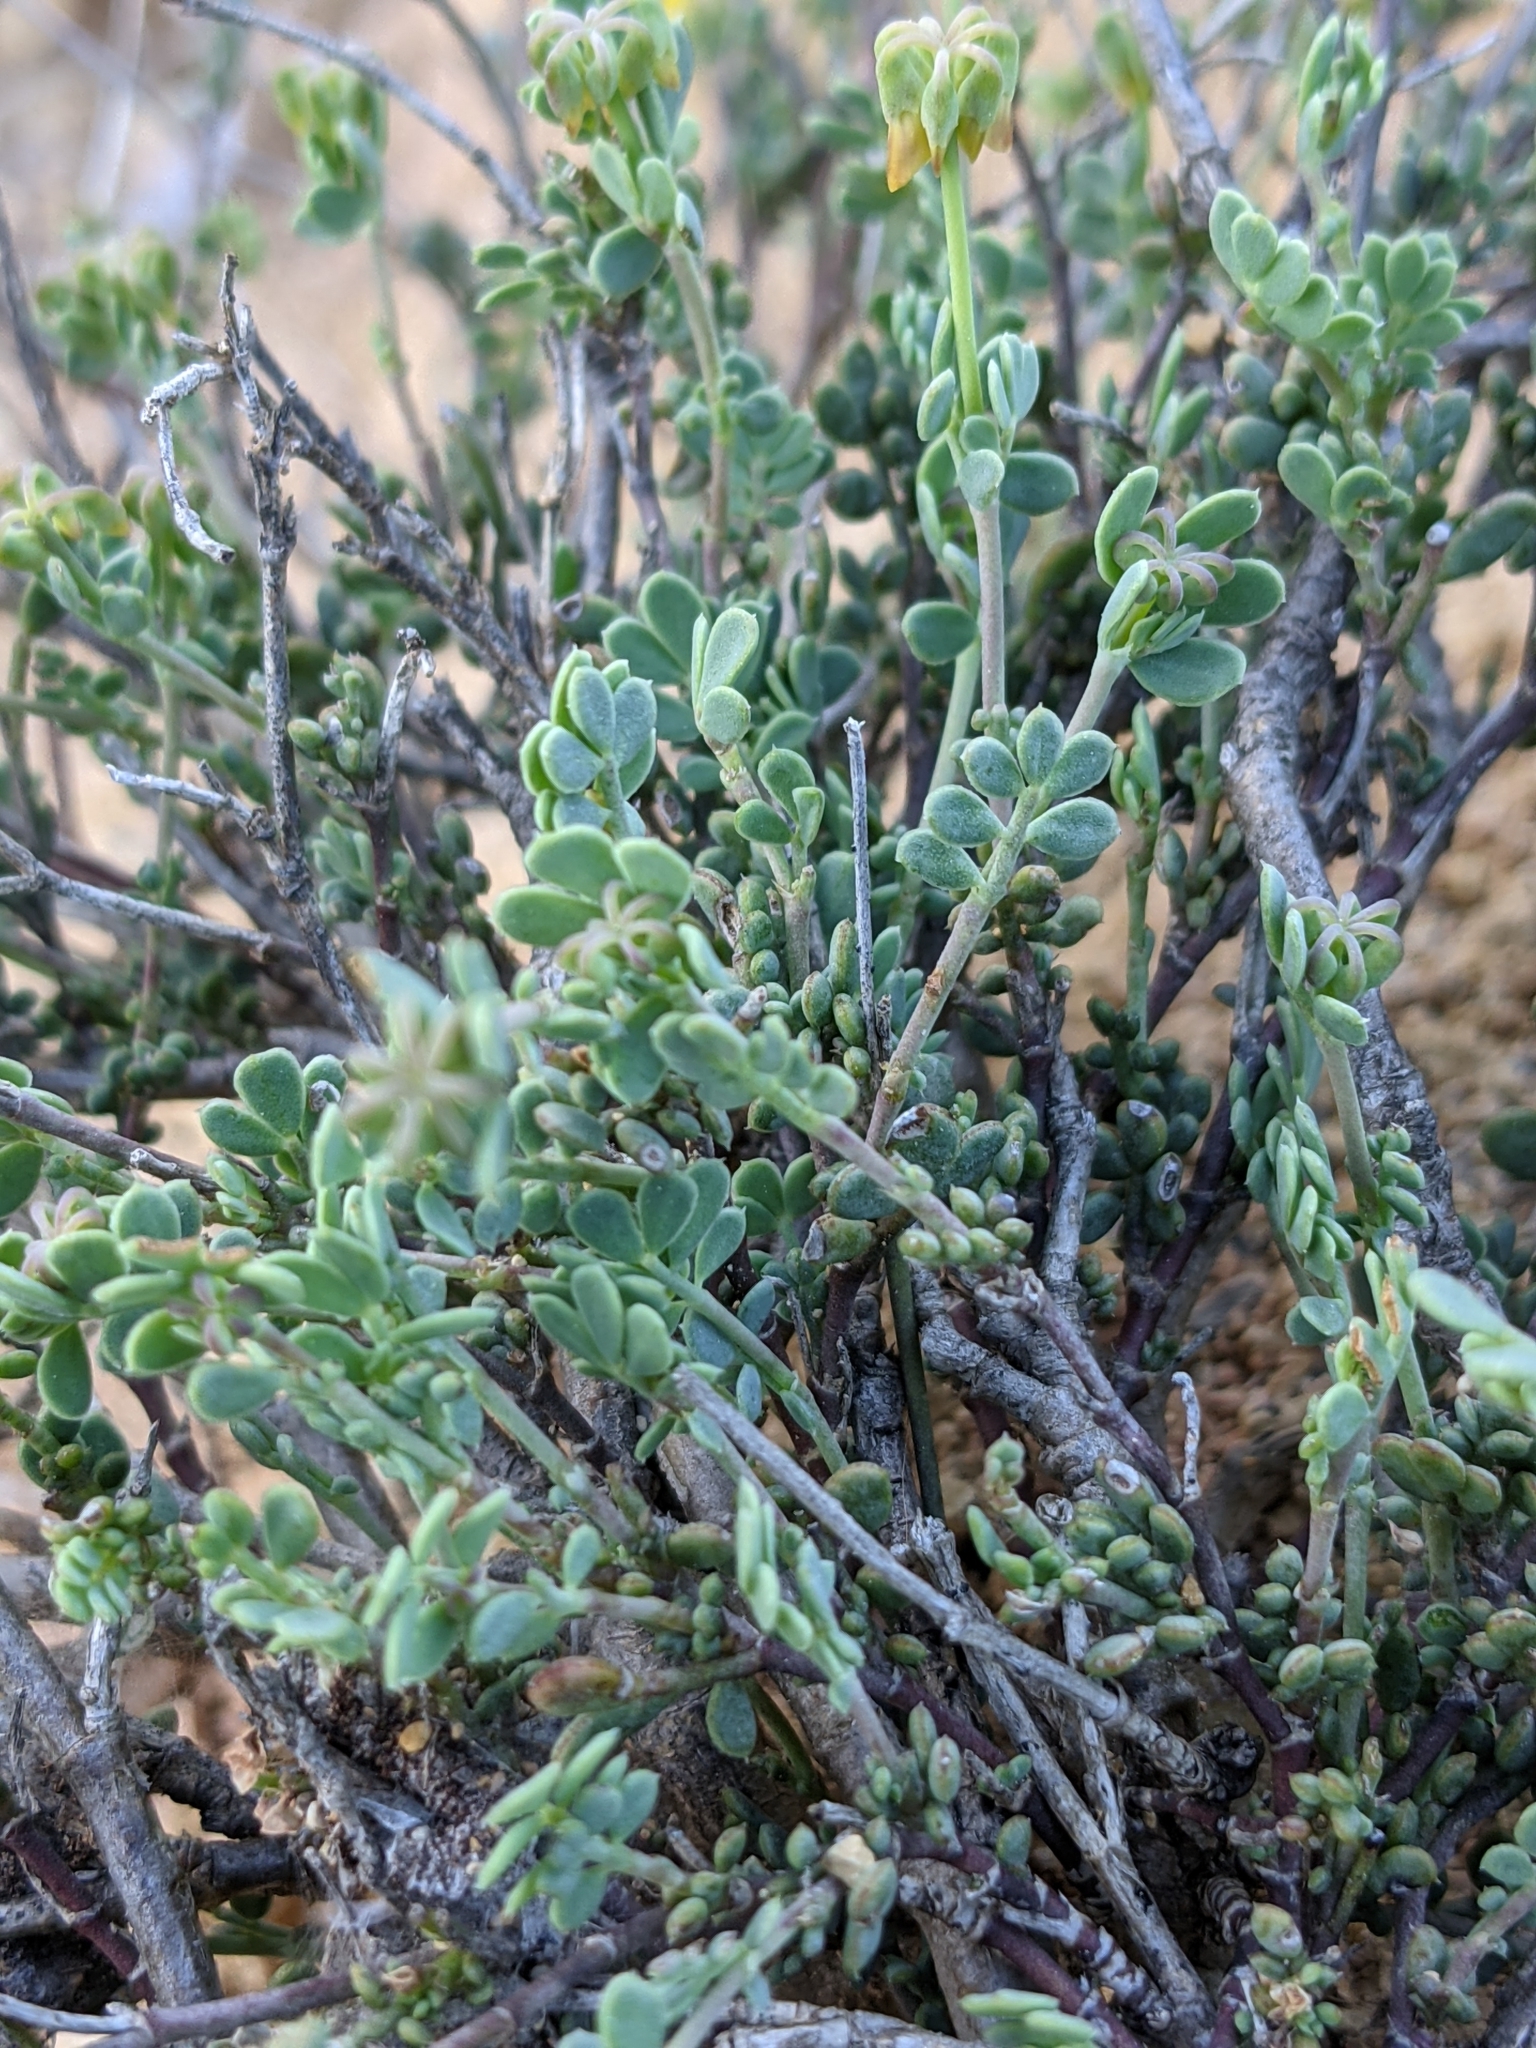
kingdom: Plantae
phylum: Tracheophyta
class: Magnoliopsida
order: Fabales
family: Fabaceae
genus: Coronilla
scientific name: Coronilla minima
